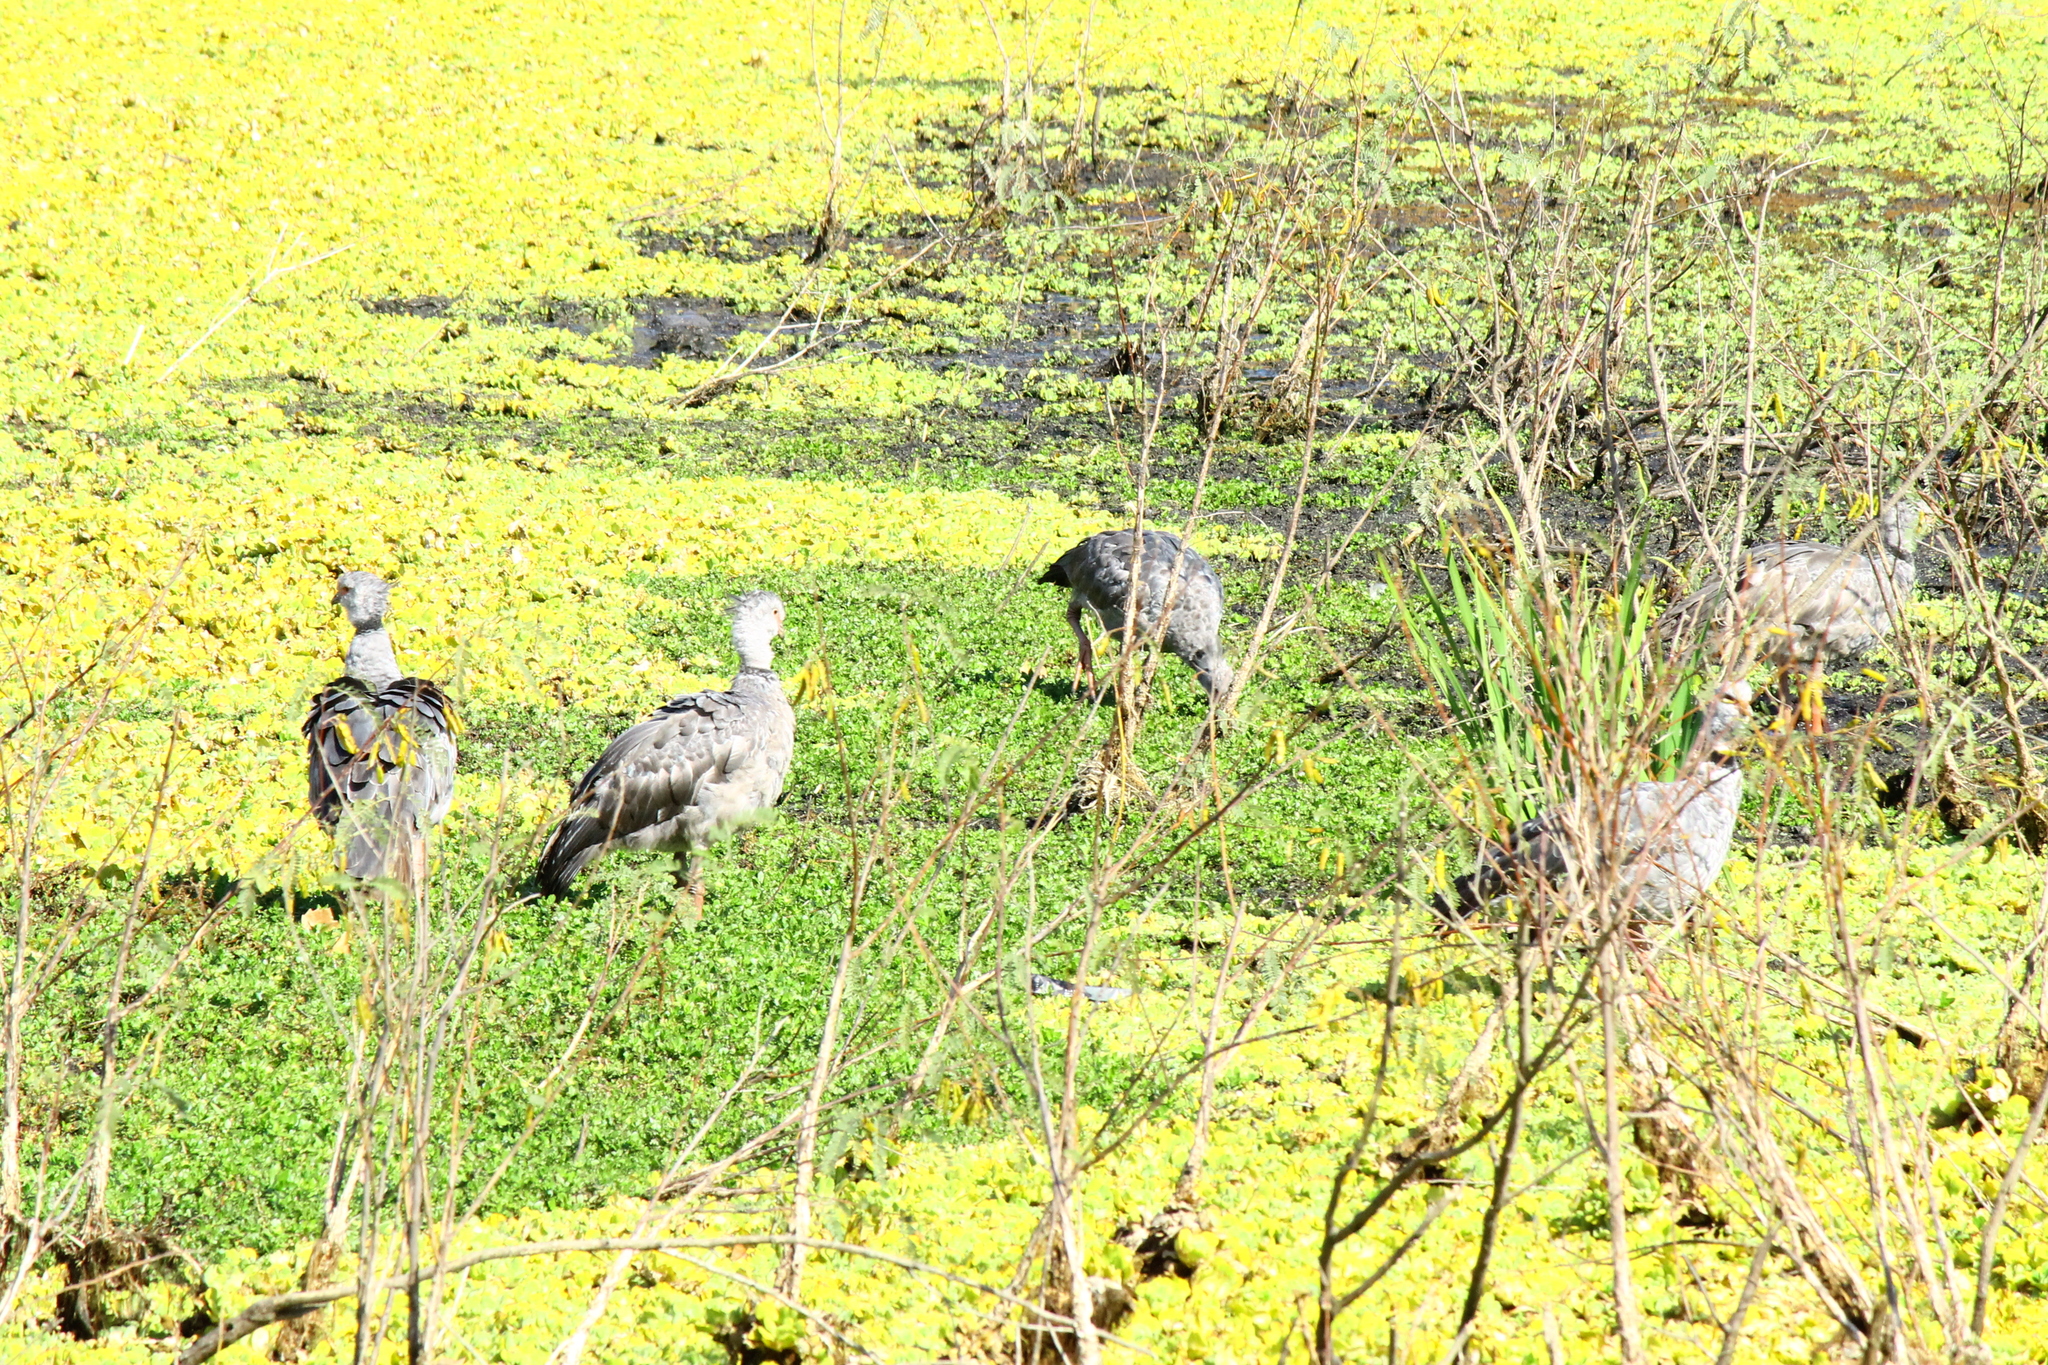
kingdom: Animalia
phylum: Chordata
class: Aves
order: Anseriformes
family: Anhimidae
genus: Chauna
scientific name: Chauna torquata
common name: Southern screamer
